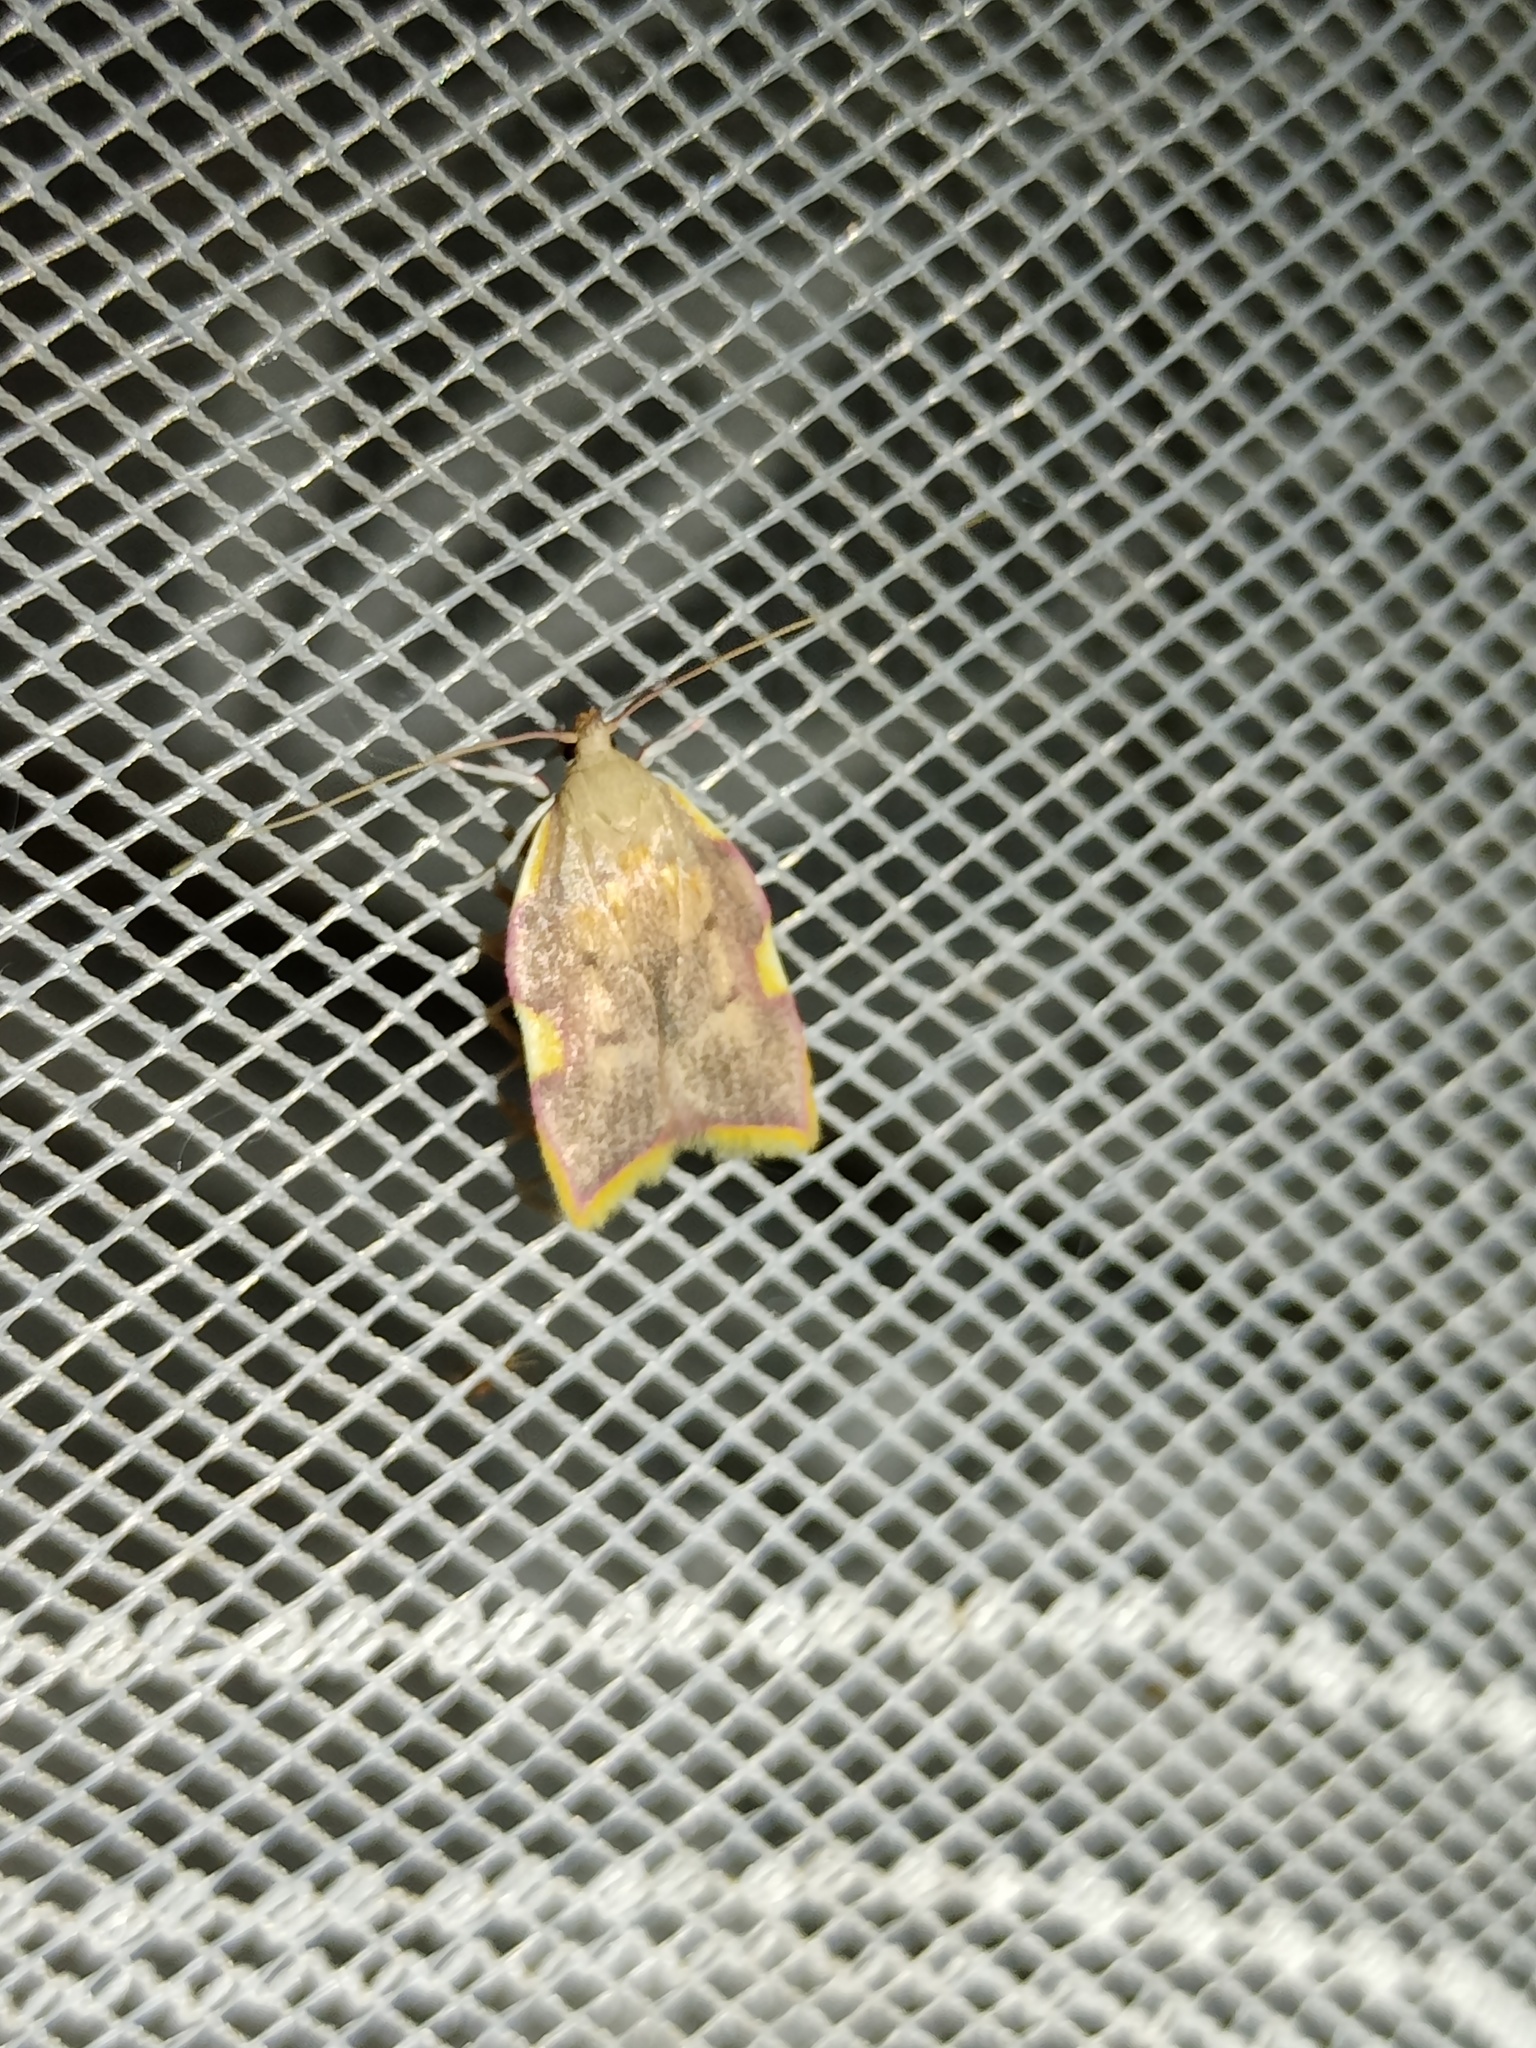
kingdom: Animalia
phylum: Arthropoda
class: Insecta
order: Lepidoptera
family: Peleopodidae
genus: Carcina
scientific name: Carcina quercana
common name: Moth
